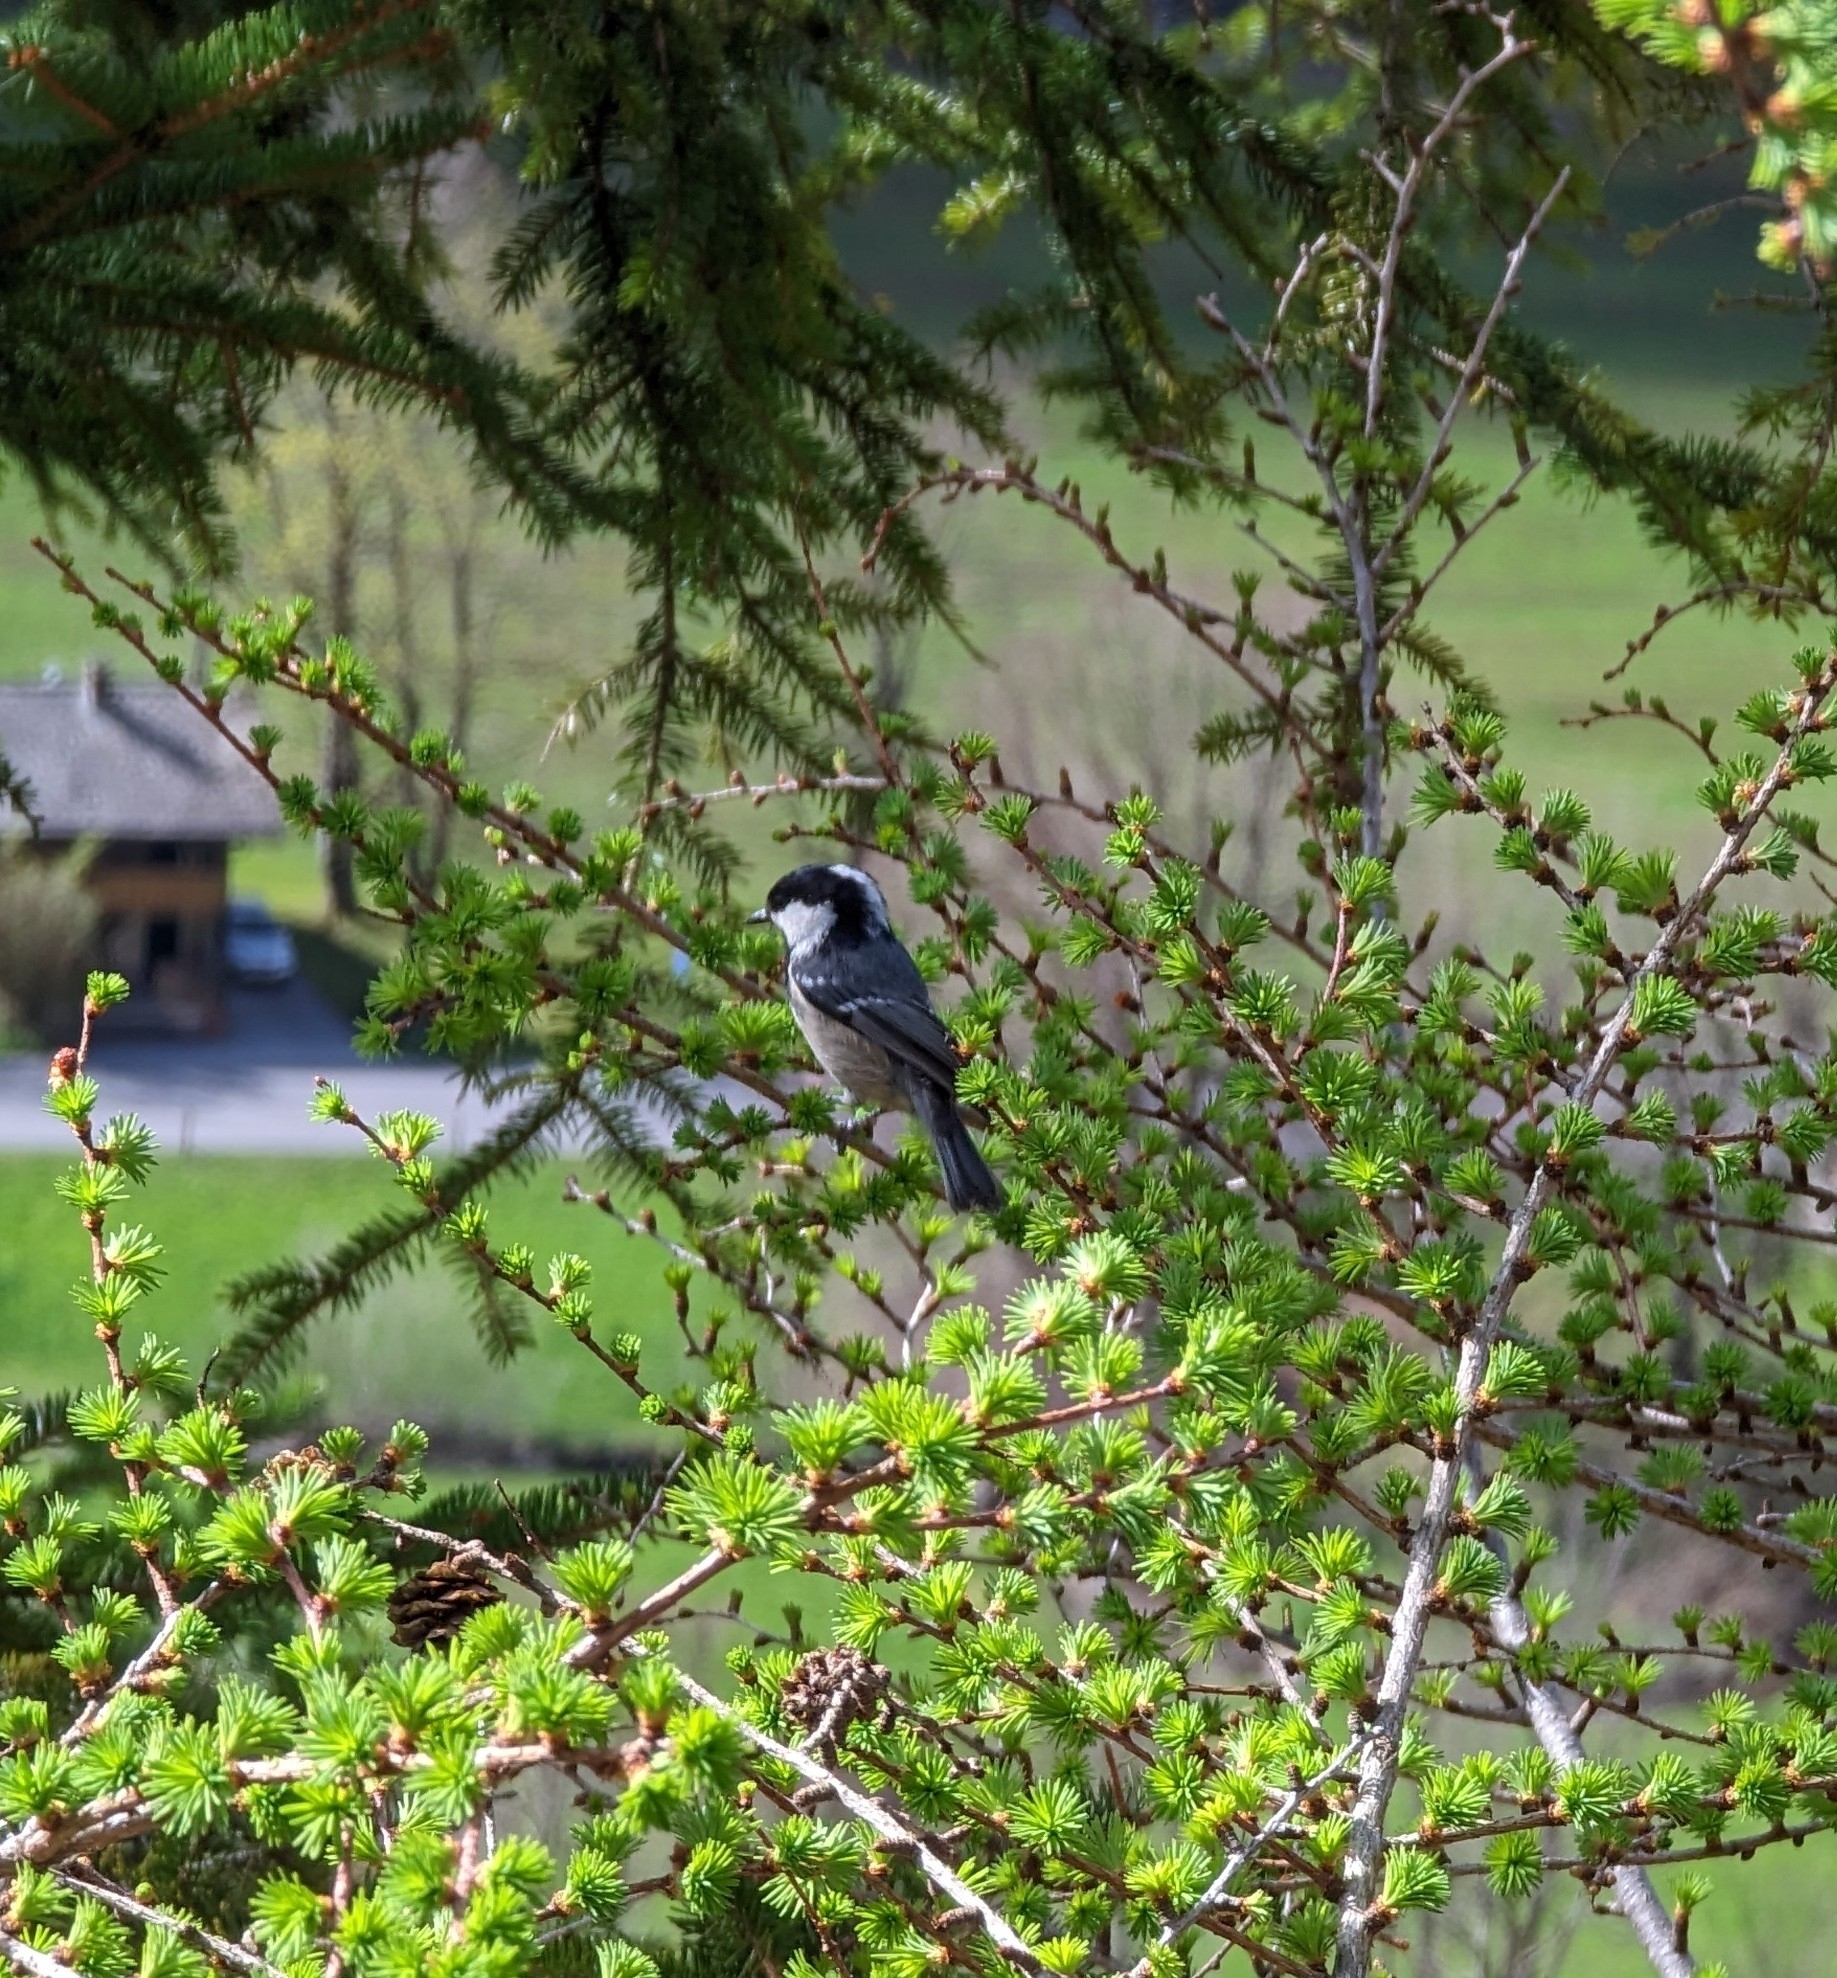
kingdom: Animalia
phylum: Chordata
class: Aves
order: Passeriformes
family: Paridae
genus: Periparus
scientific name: Periparus ater
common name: Coal tit
